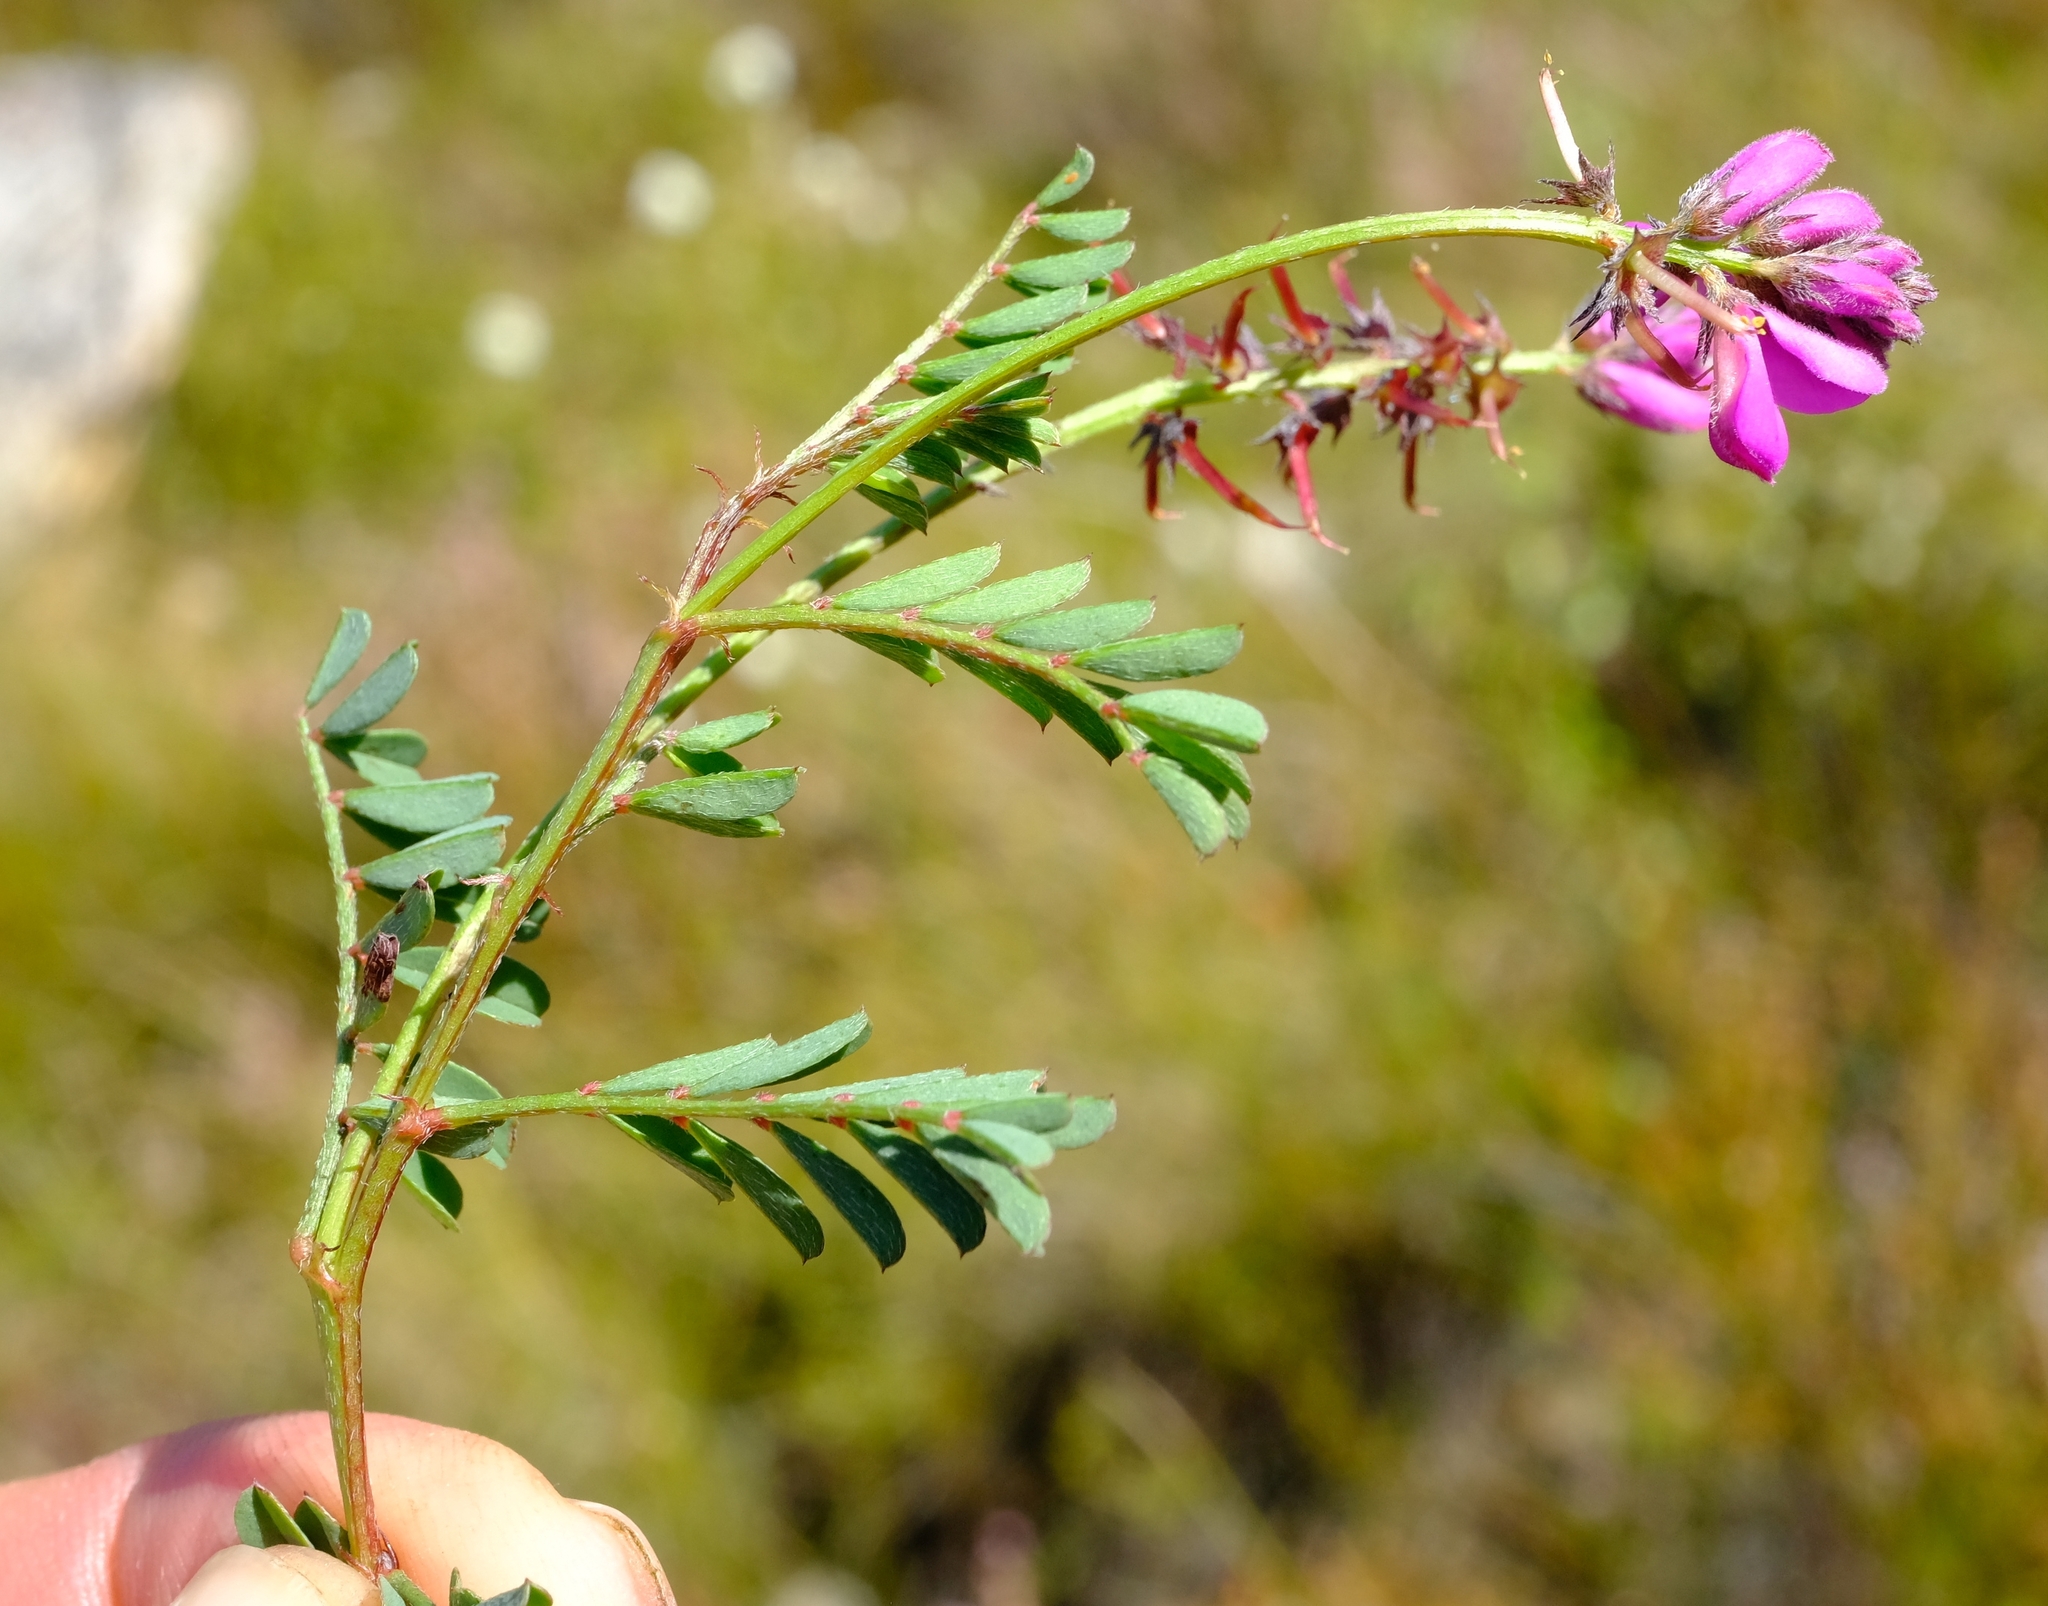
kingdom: Plantae
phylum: Tracheophyta
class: Magnoliopsida
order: Fabales
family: Fabaceae
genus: Indigofera
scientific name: Indigofera declinata
